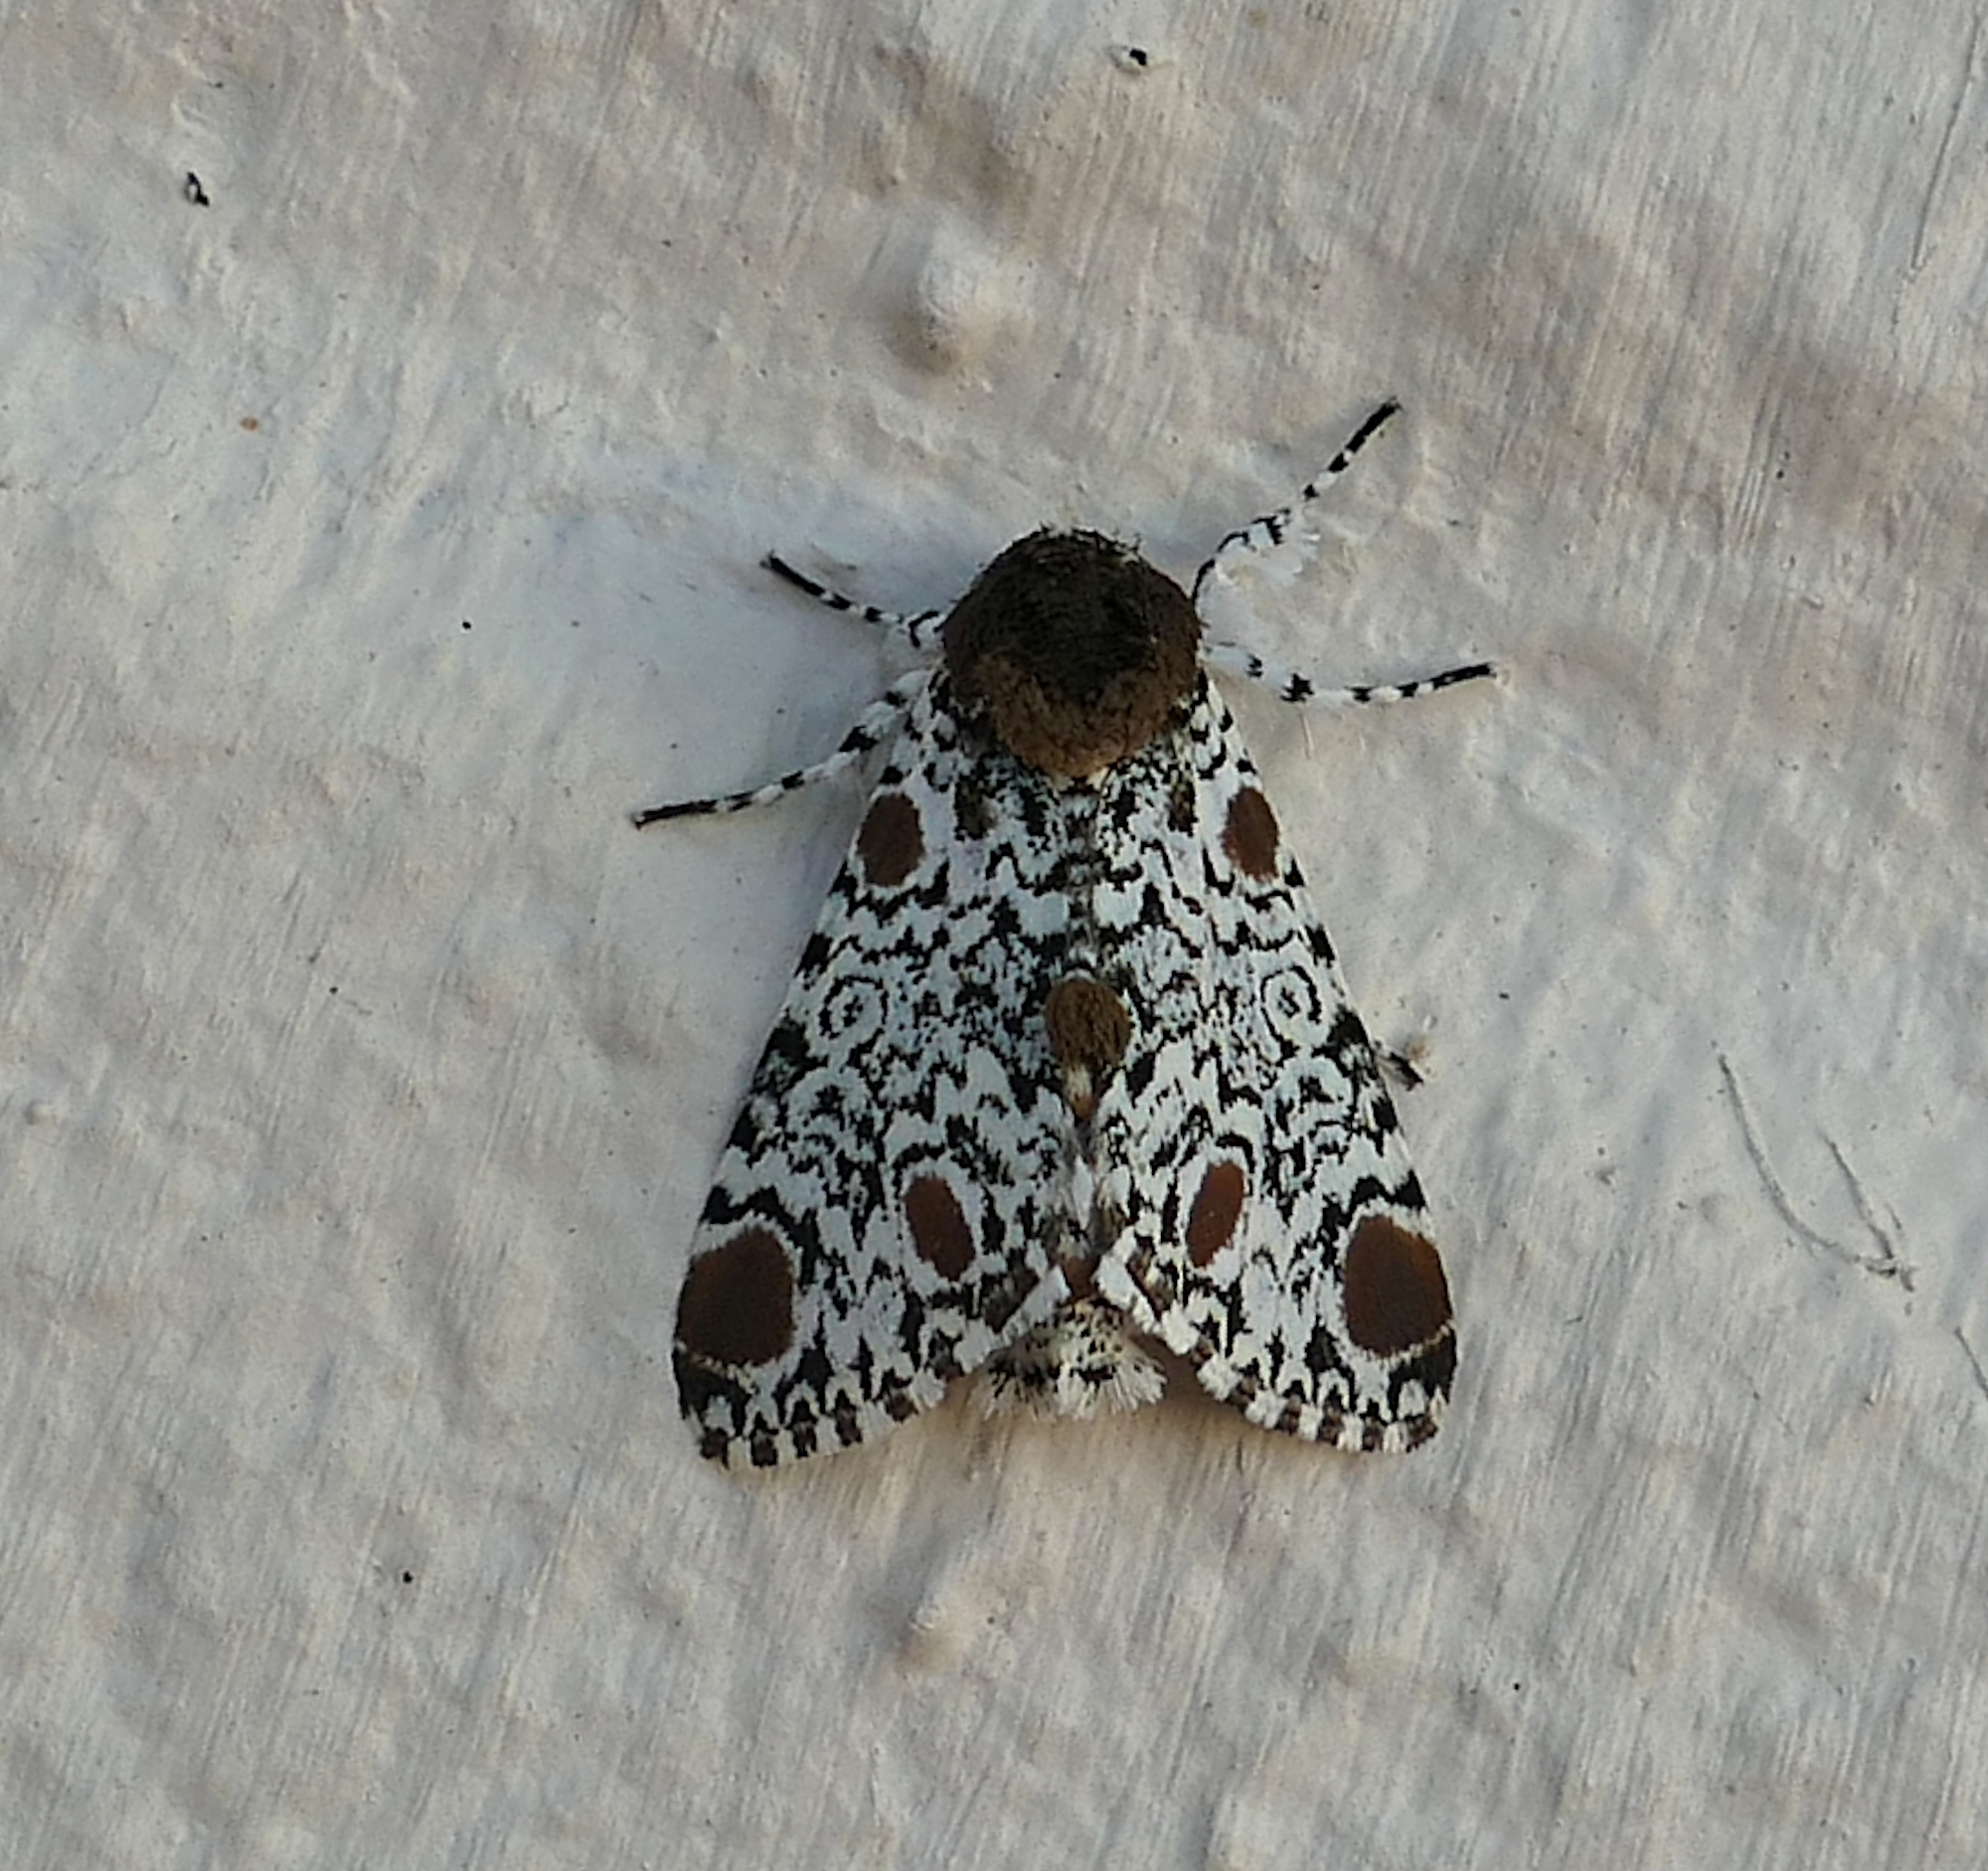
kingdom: Animalia
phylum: Arthropoda
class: Insecta
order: Lepidoptera
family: Noctuidae
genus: Harrisimemna
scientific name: Harrisimemna trisignata
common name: Harris threespot
